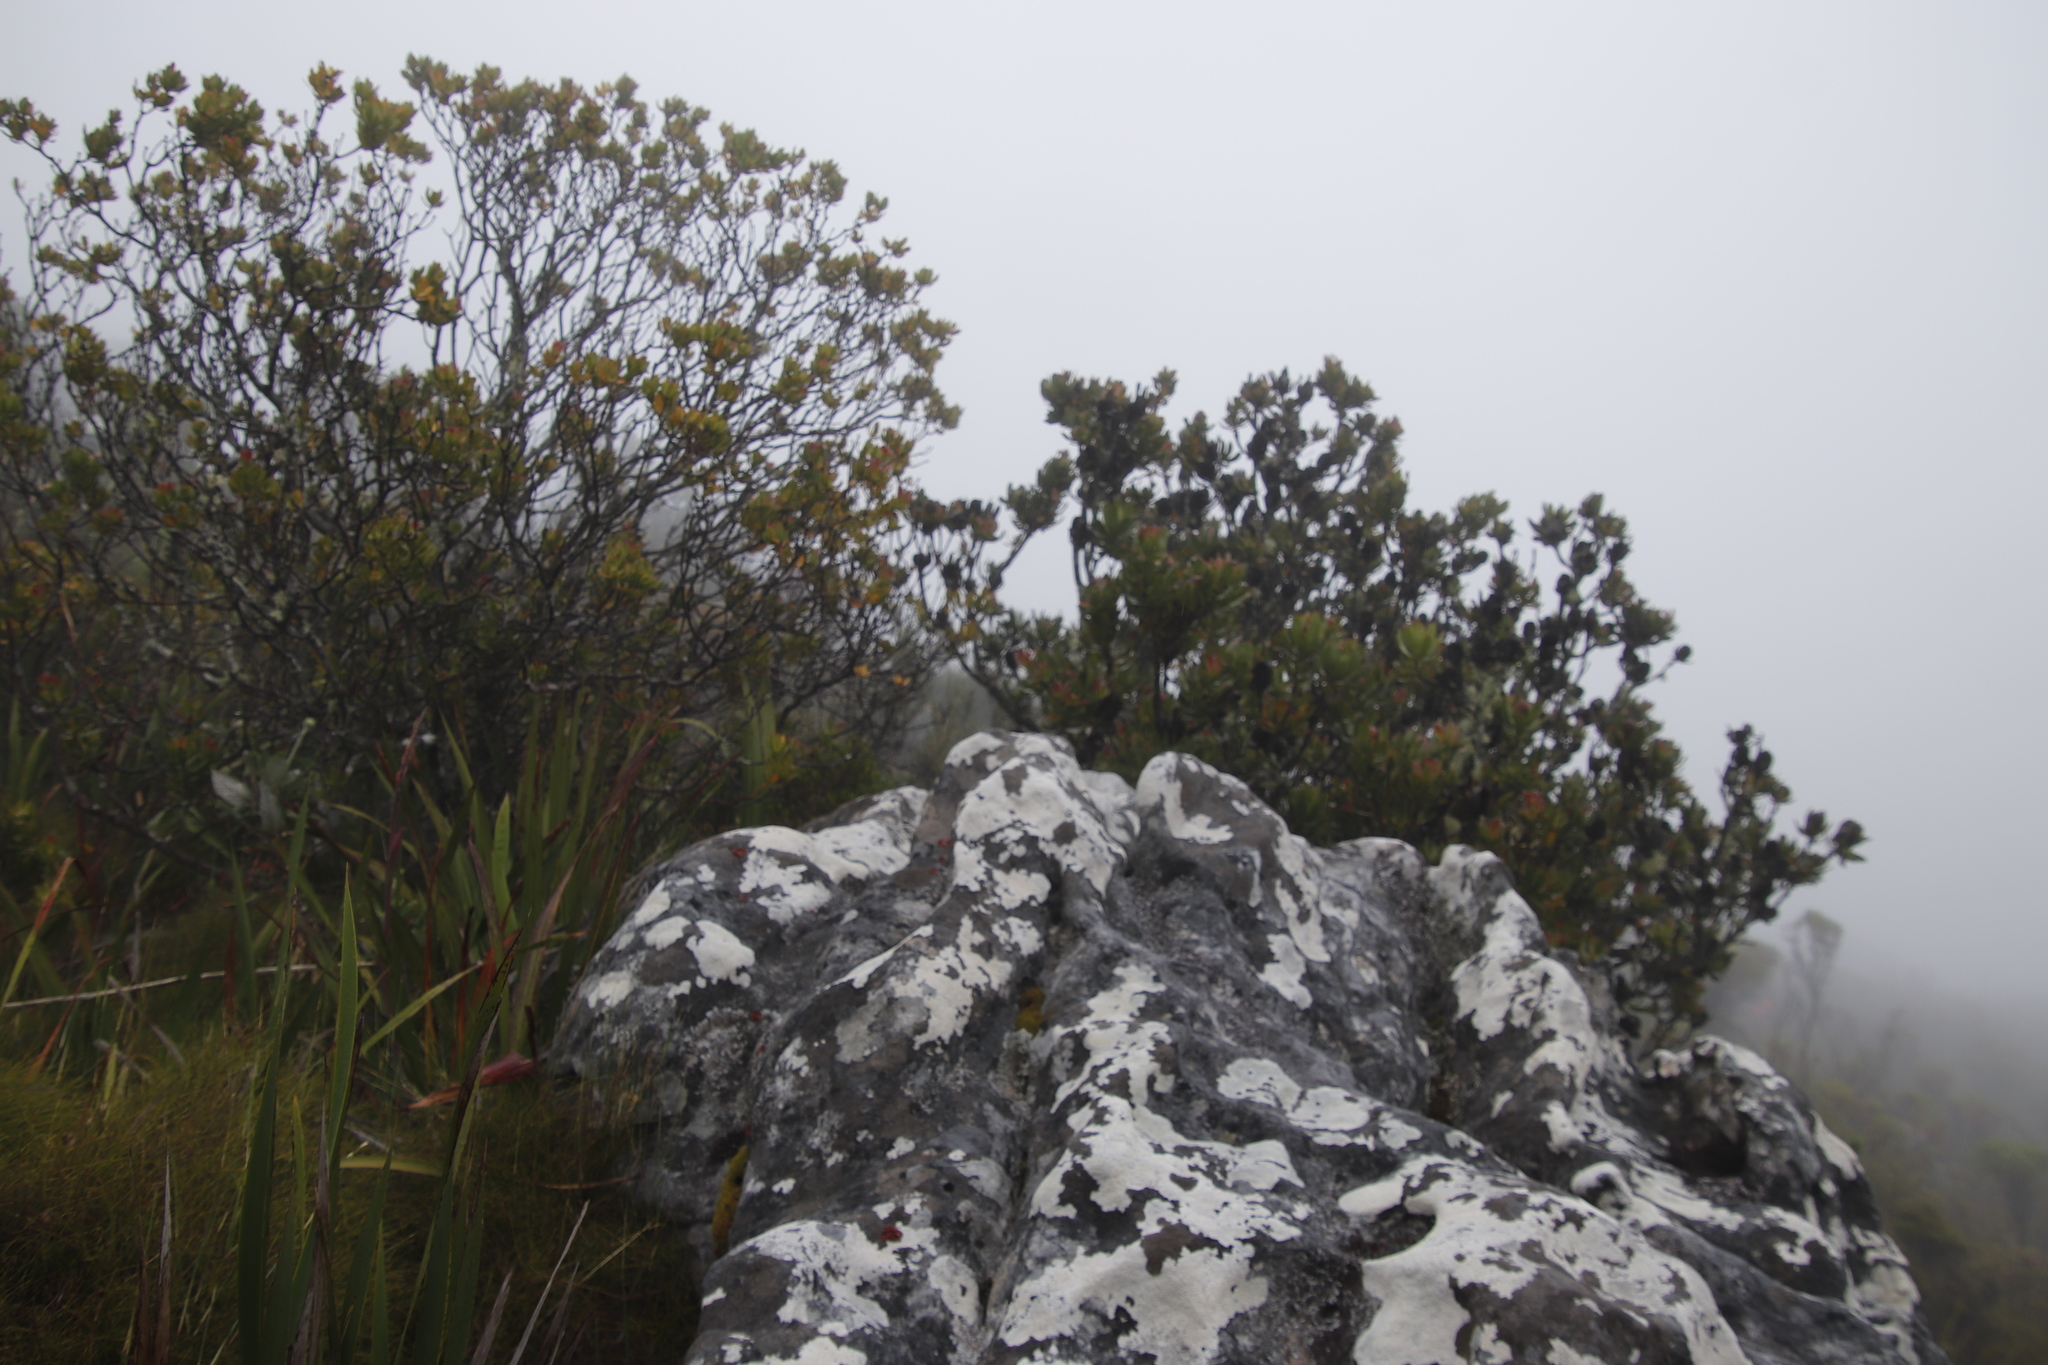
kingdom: Plantae
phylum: Tracheophyta
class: Magnoliopsida
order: Proteales
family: Proteaceae
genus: Leucadendron
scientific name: Leucadendron strobilinum
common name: Mountain rose
